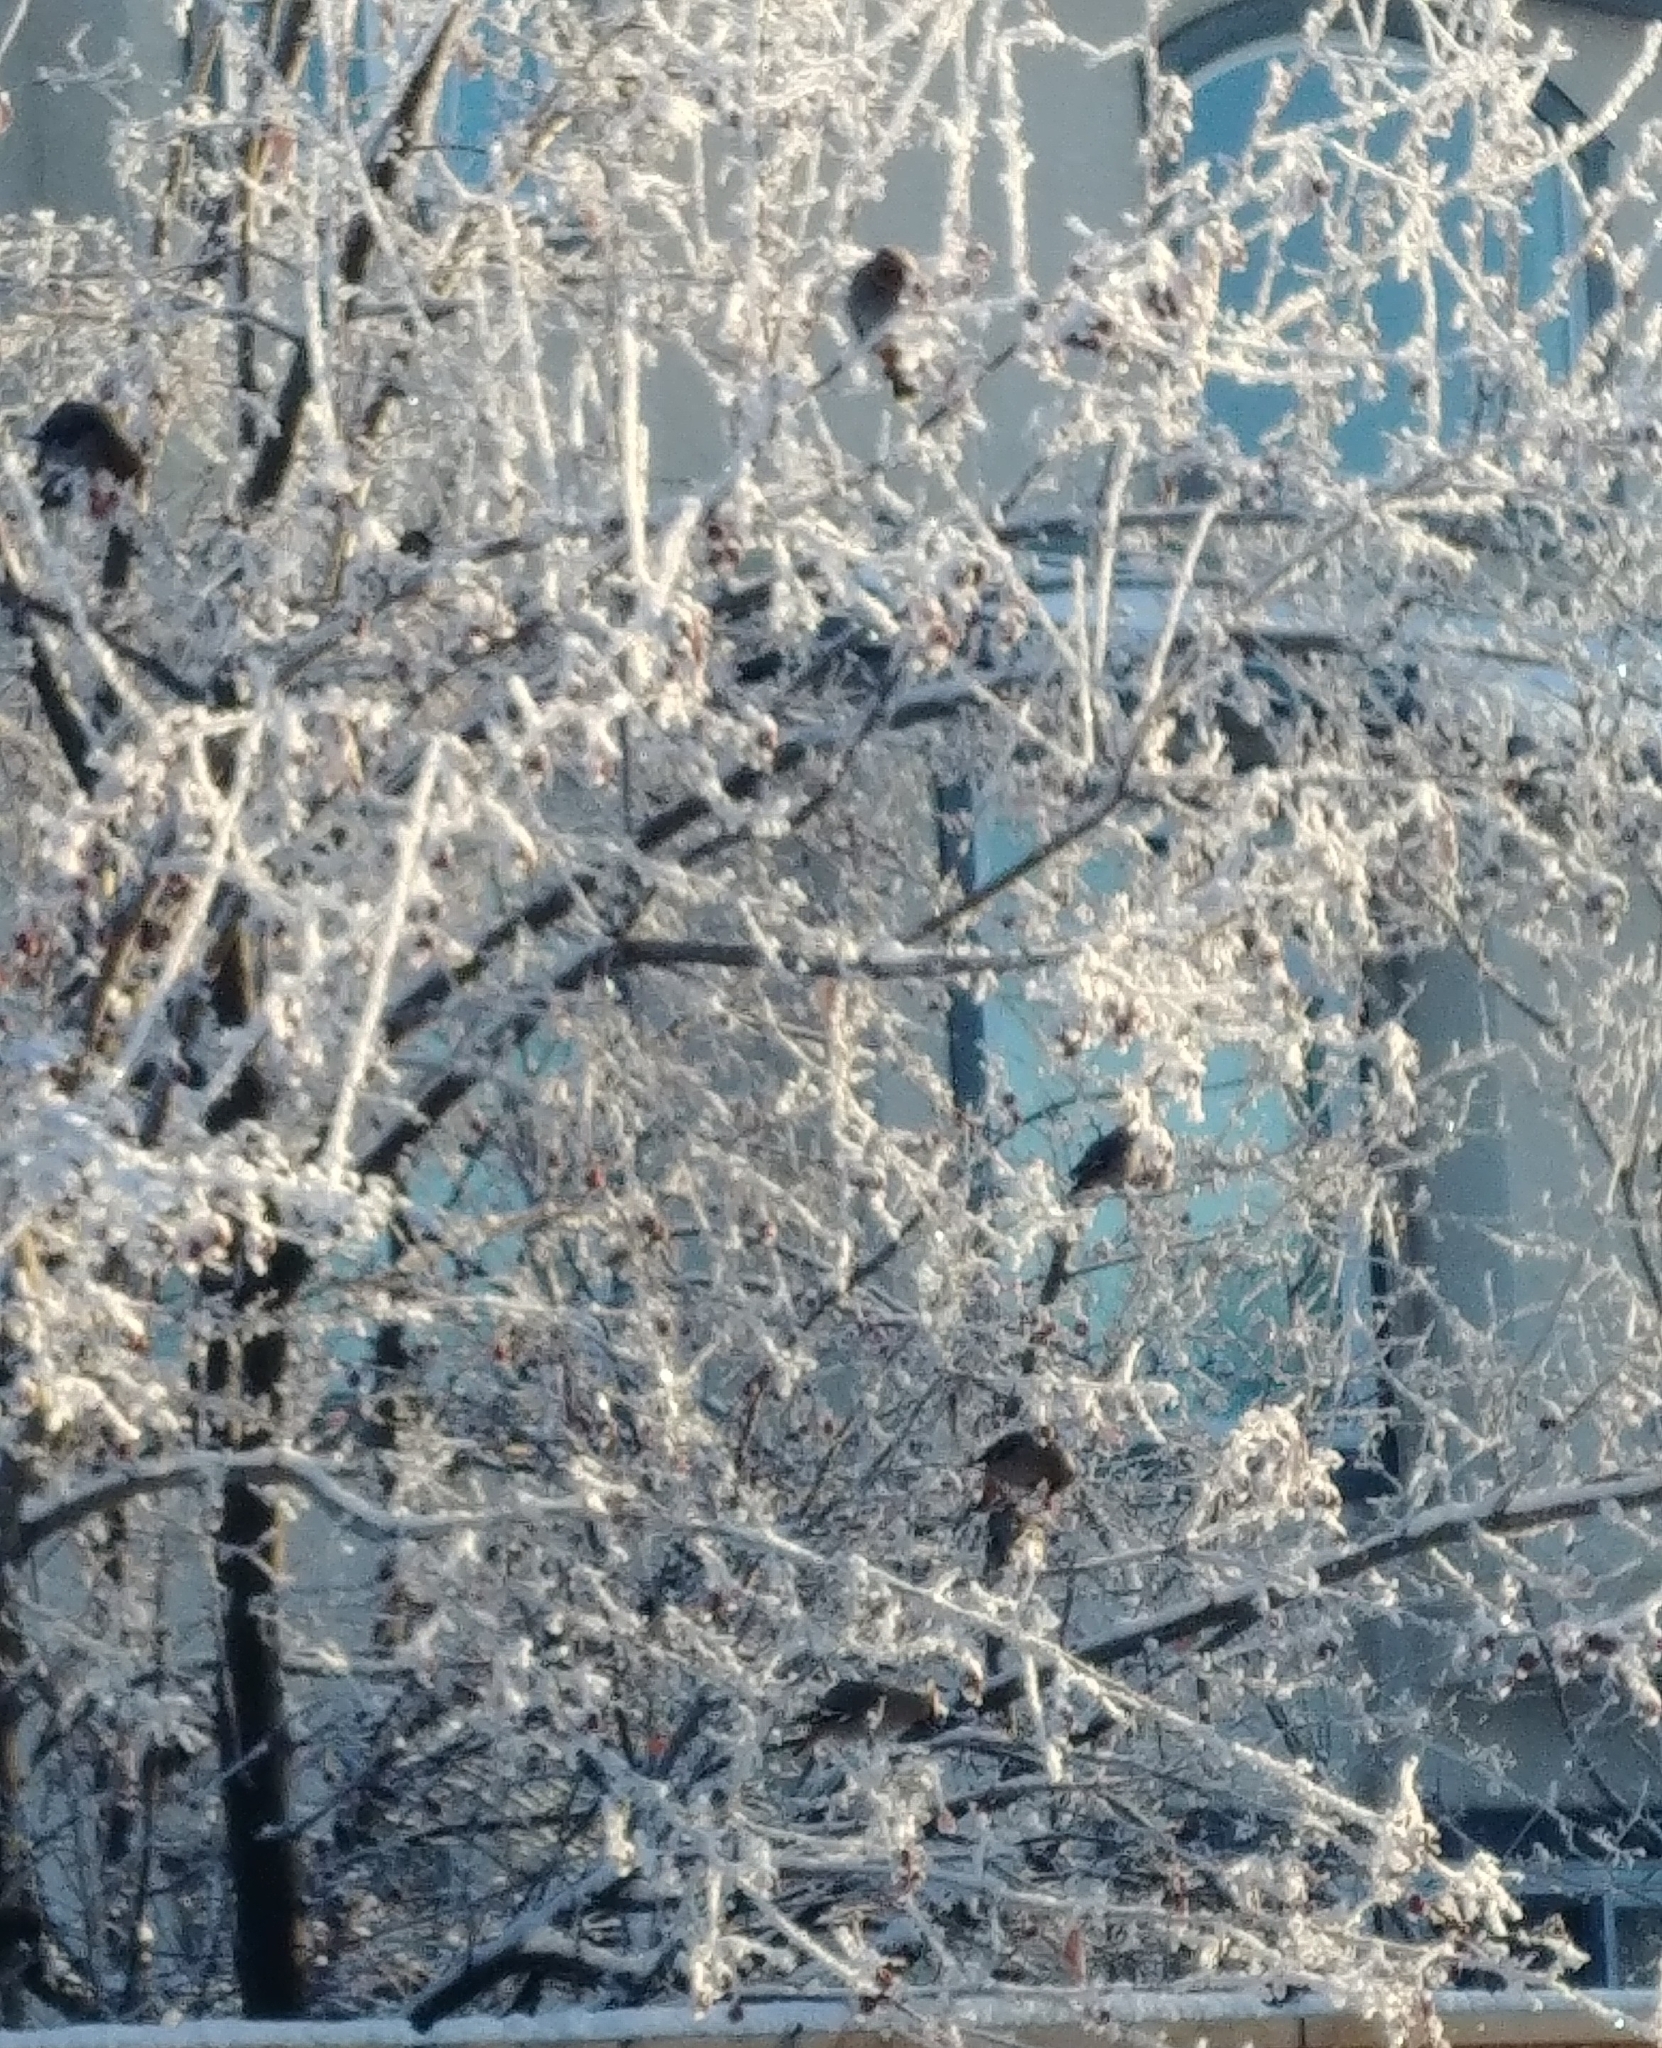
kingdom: Animalia
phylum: Chordata
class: Aves
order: Passeriformes
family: Bombycillidae
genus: Bombycilla
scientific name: Bombycilla garrulus
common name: Bohemian waxwing
